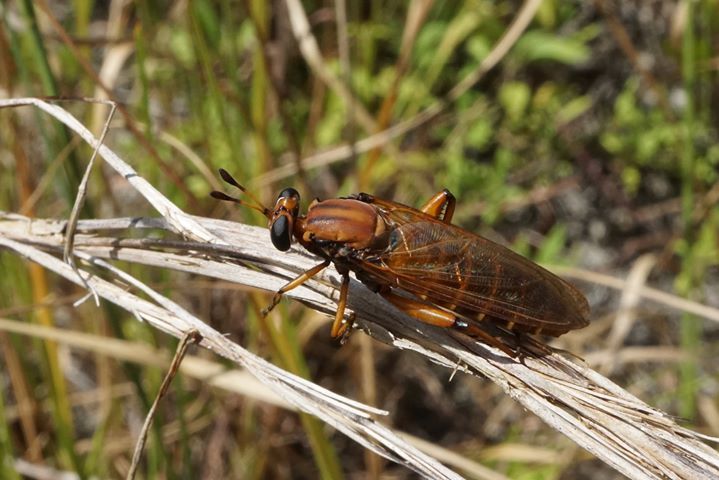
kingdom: Animalia
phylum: Arthropoda
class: Insecta
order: Diptera
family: Mydidae
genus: Mydas
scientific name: Mydas maculiventris
